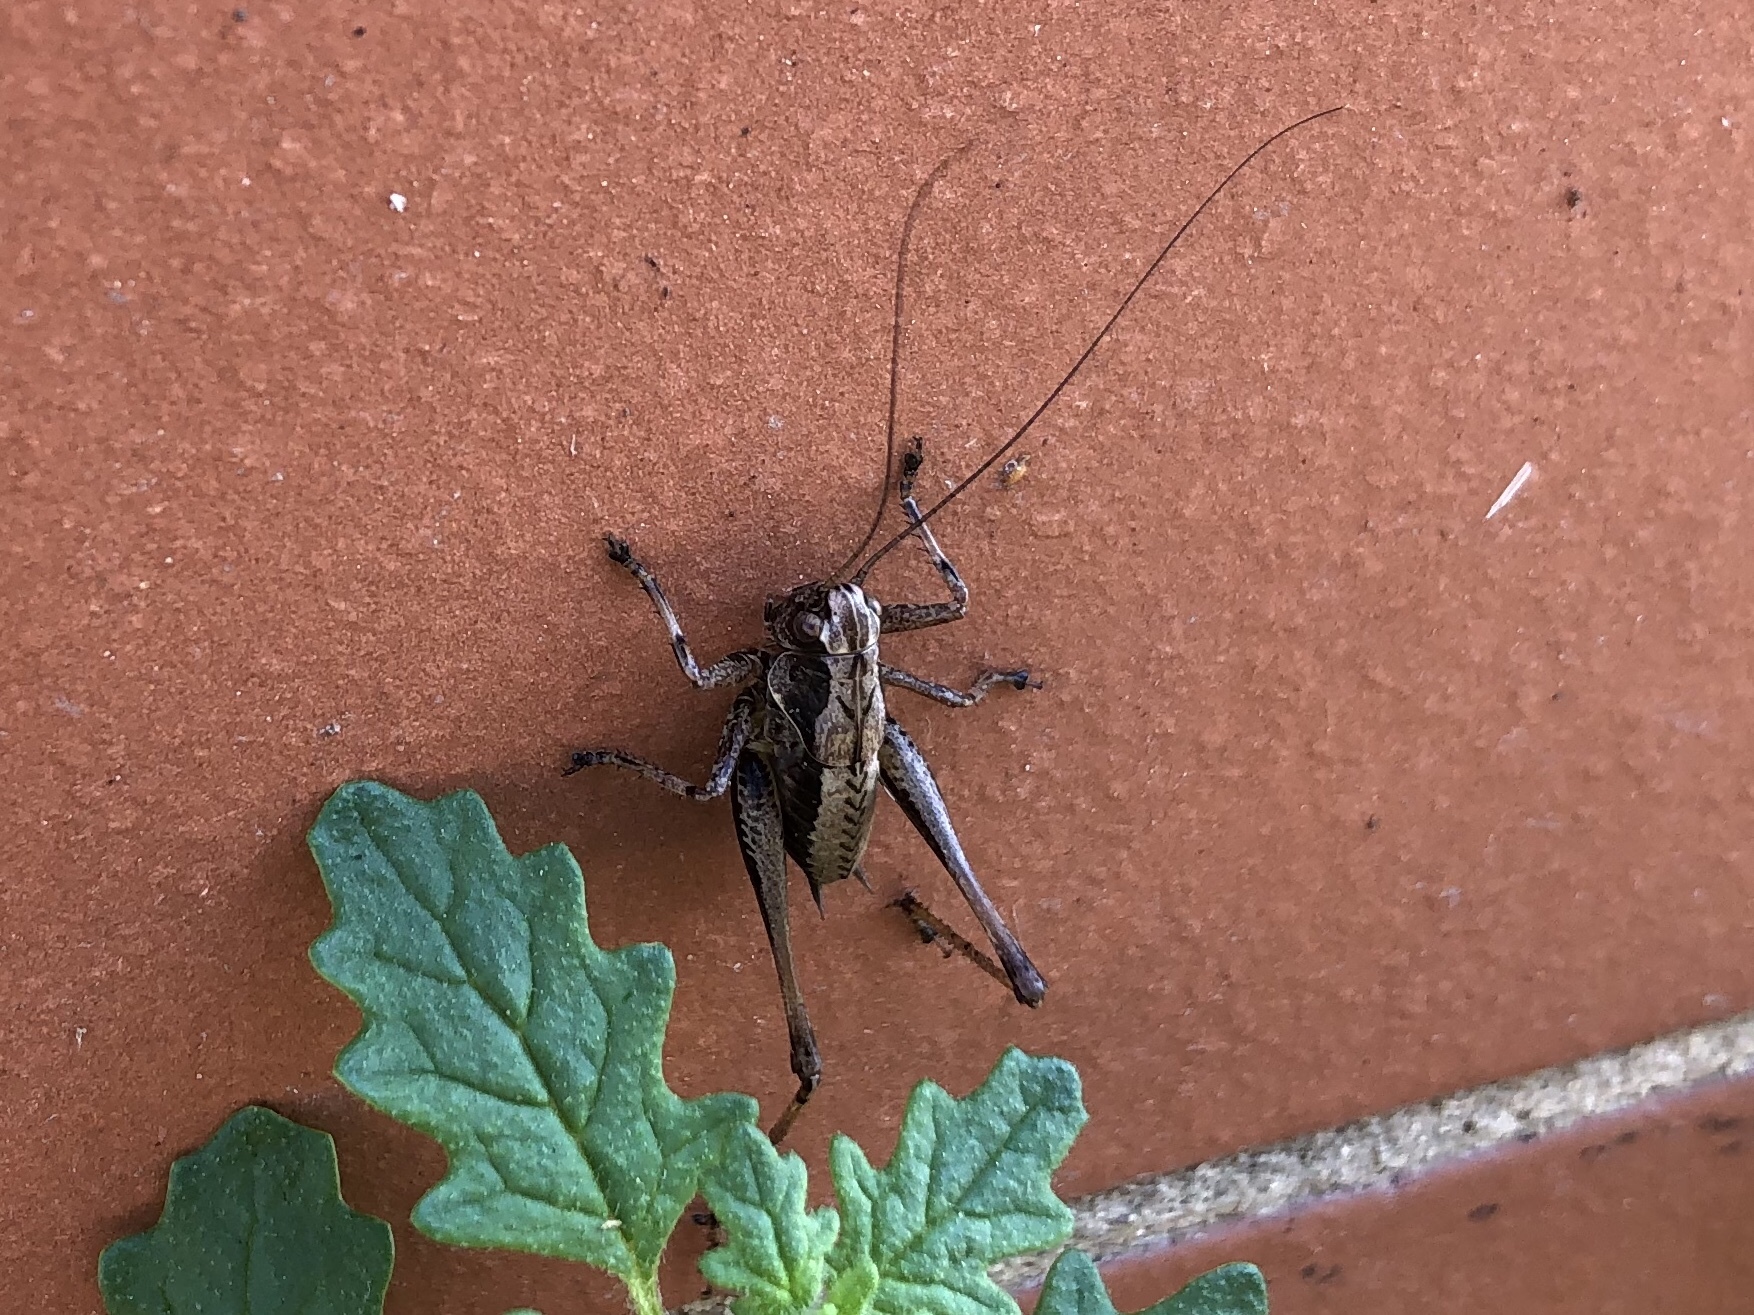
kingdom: Animalia
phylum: Arthropoda
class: Insecta
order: Orthoptera
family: Tettigoniidae
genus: Pholidoptera
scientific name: Pholidoptera griseoaptera
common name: Dark bush-cricket
